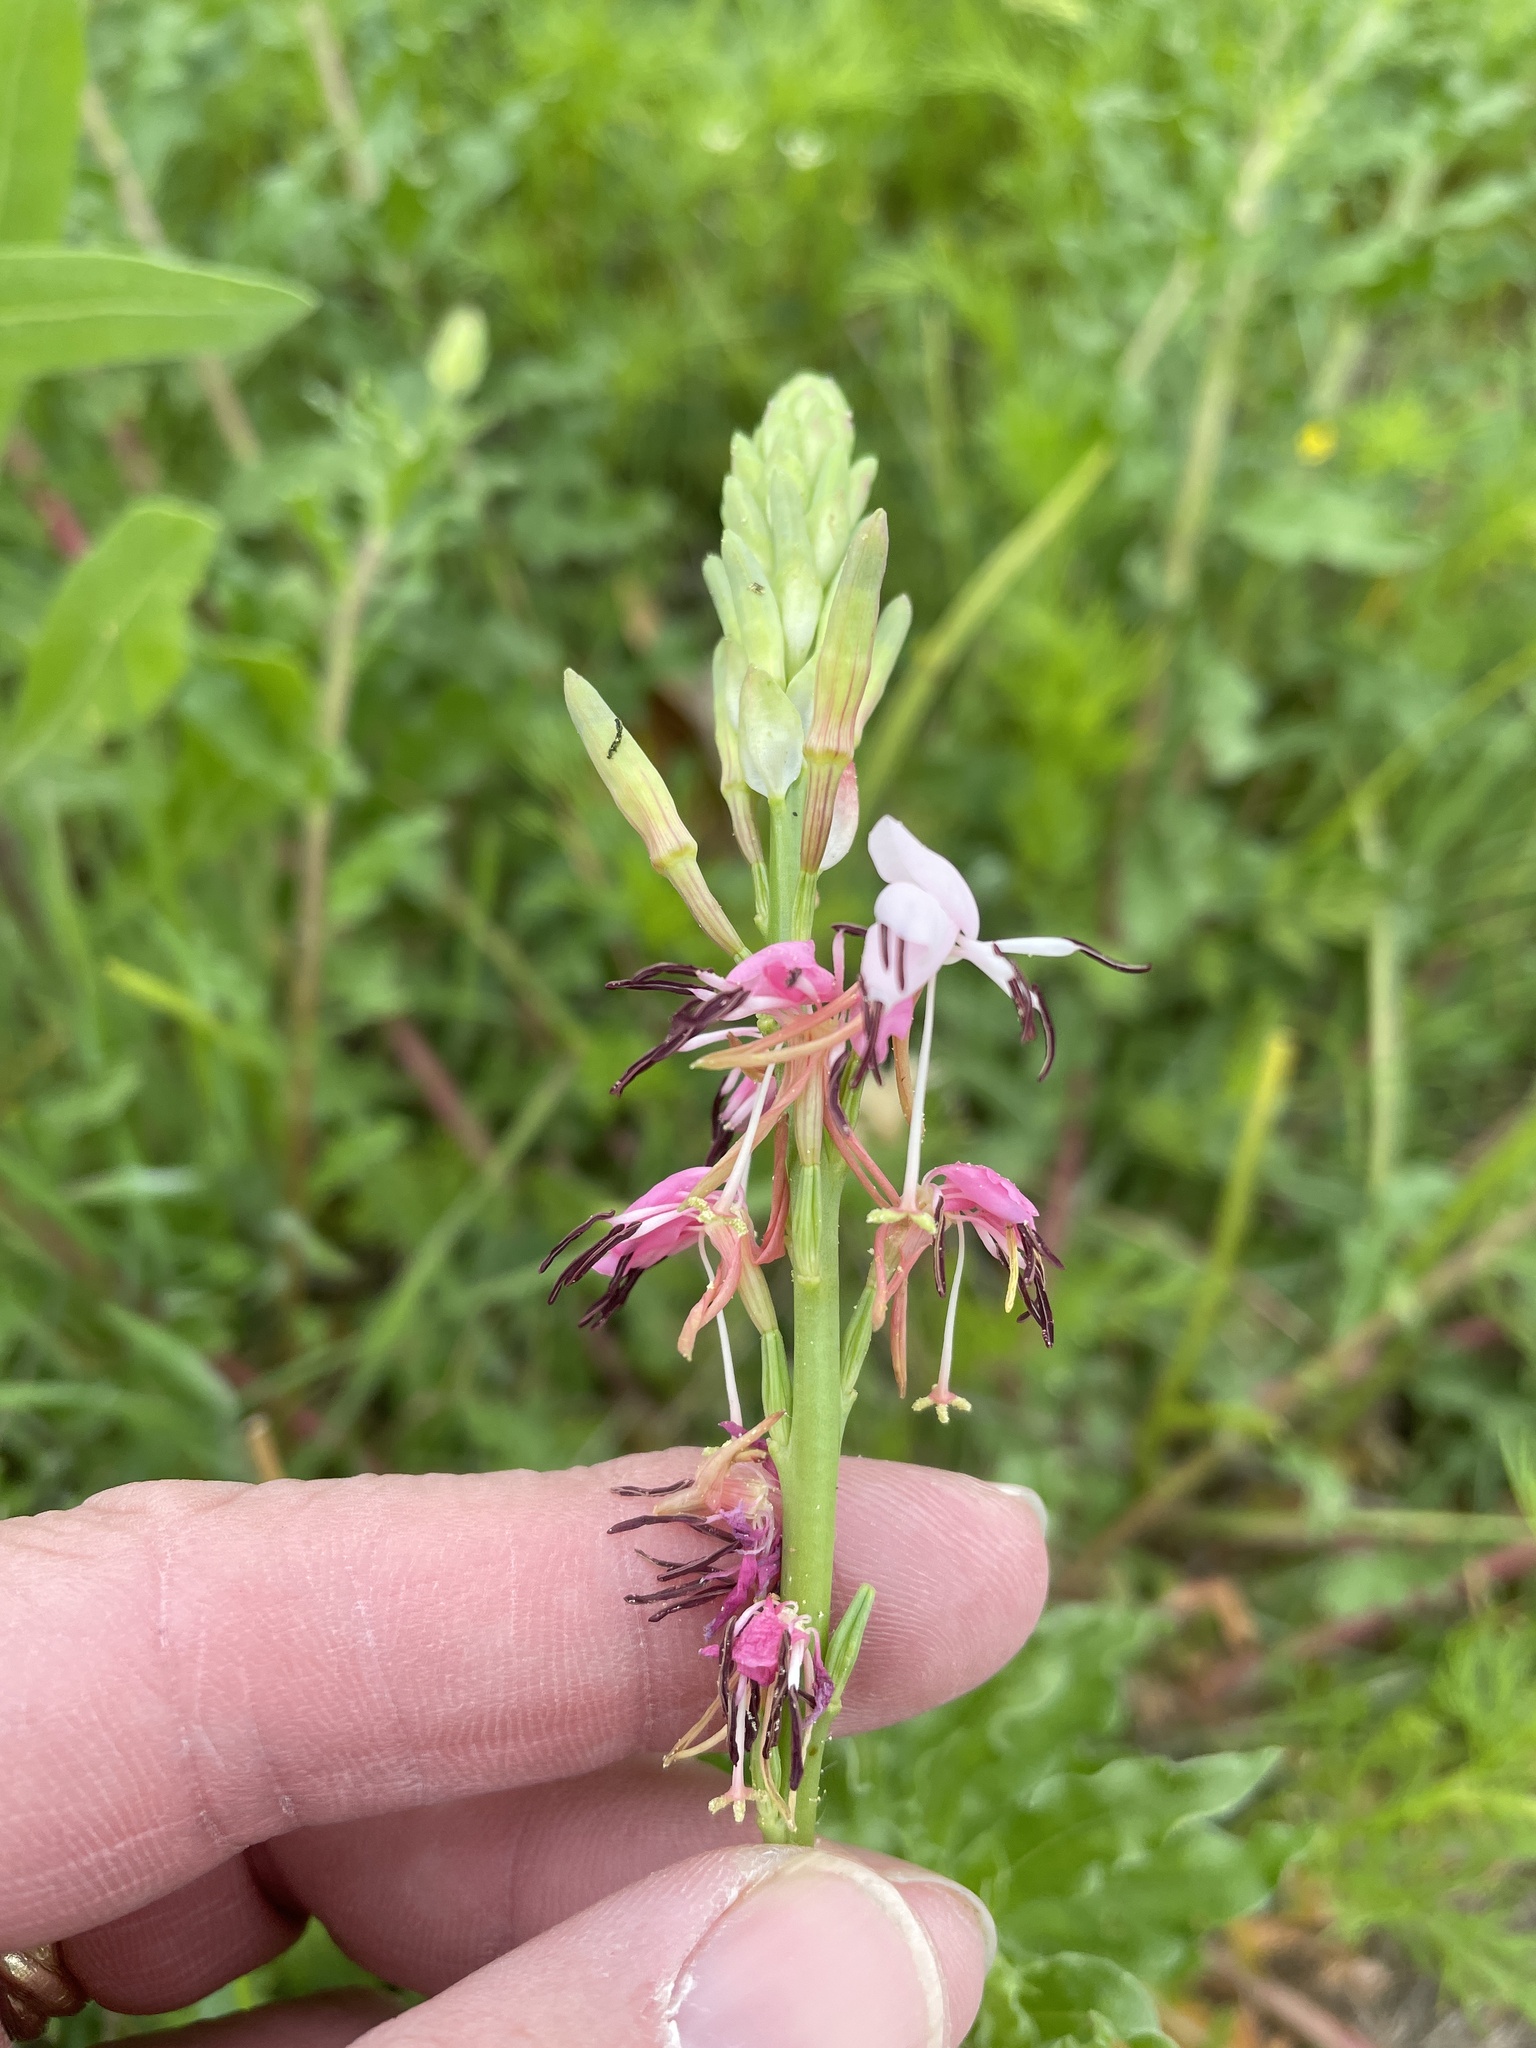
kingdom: Plantae
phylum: Tracheophyta
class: Magnoliopsida
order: Myrtales
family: Onagraceae
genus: Oenothera
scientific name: Oenothera suffulta
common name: Kisses
